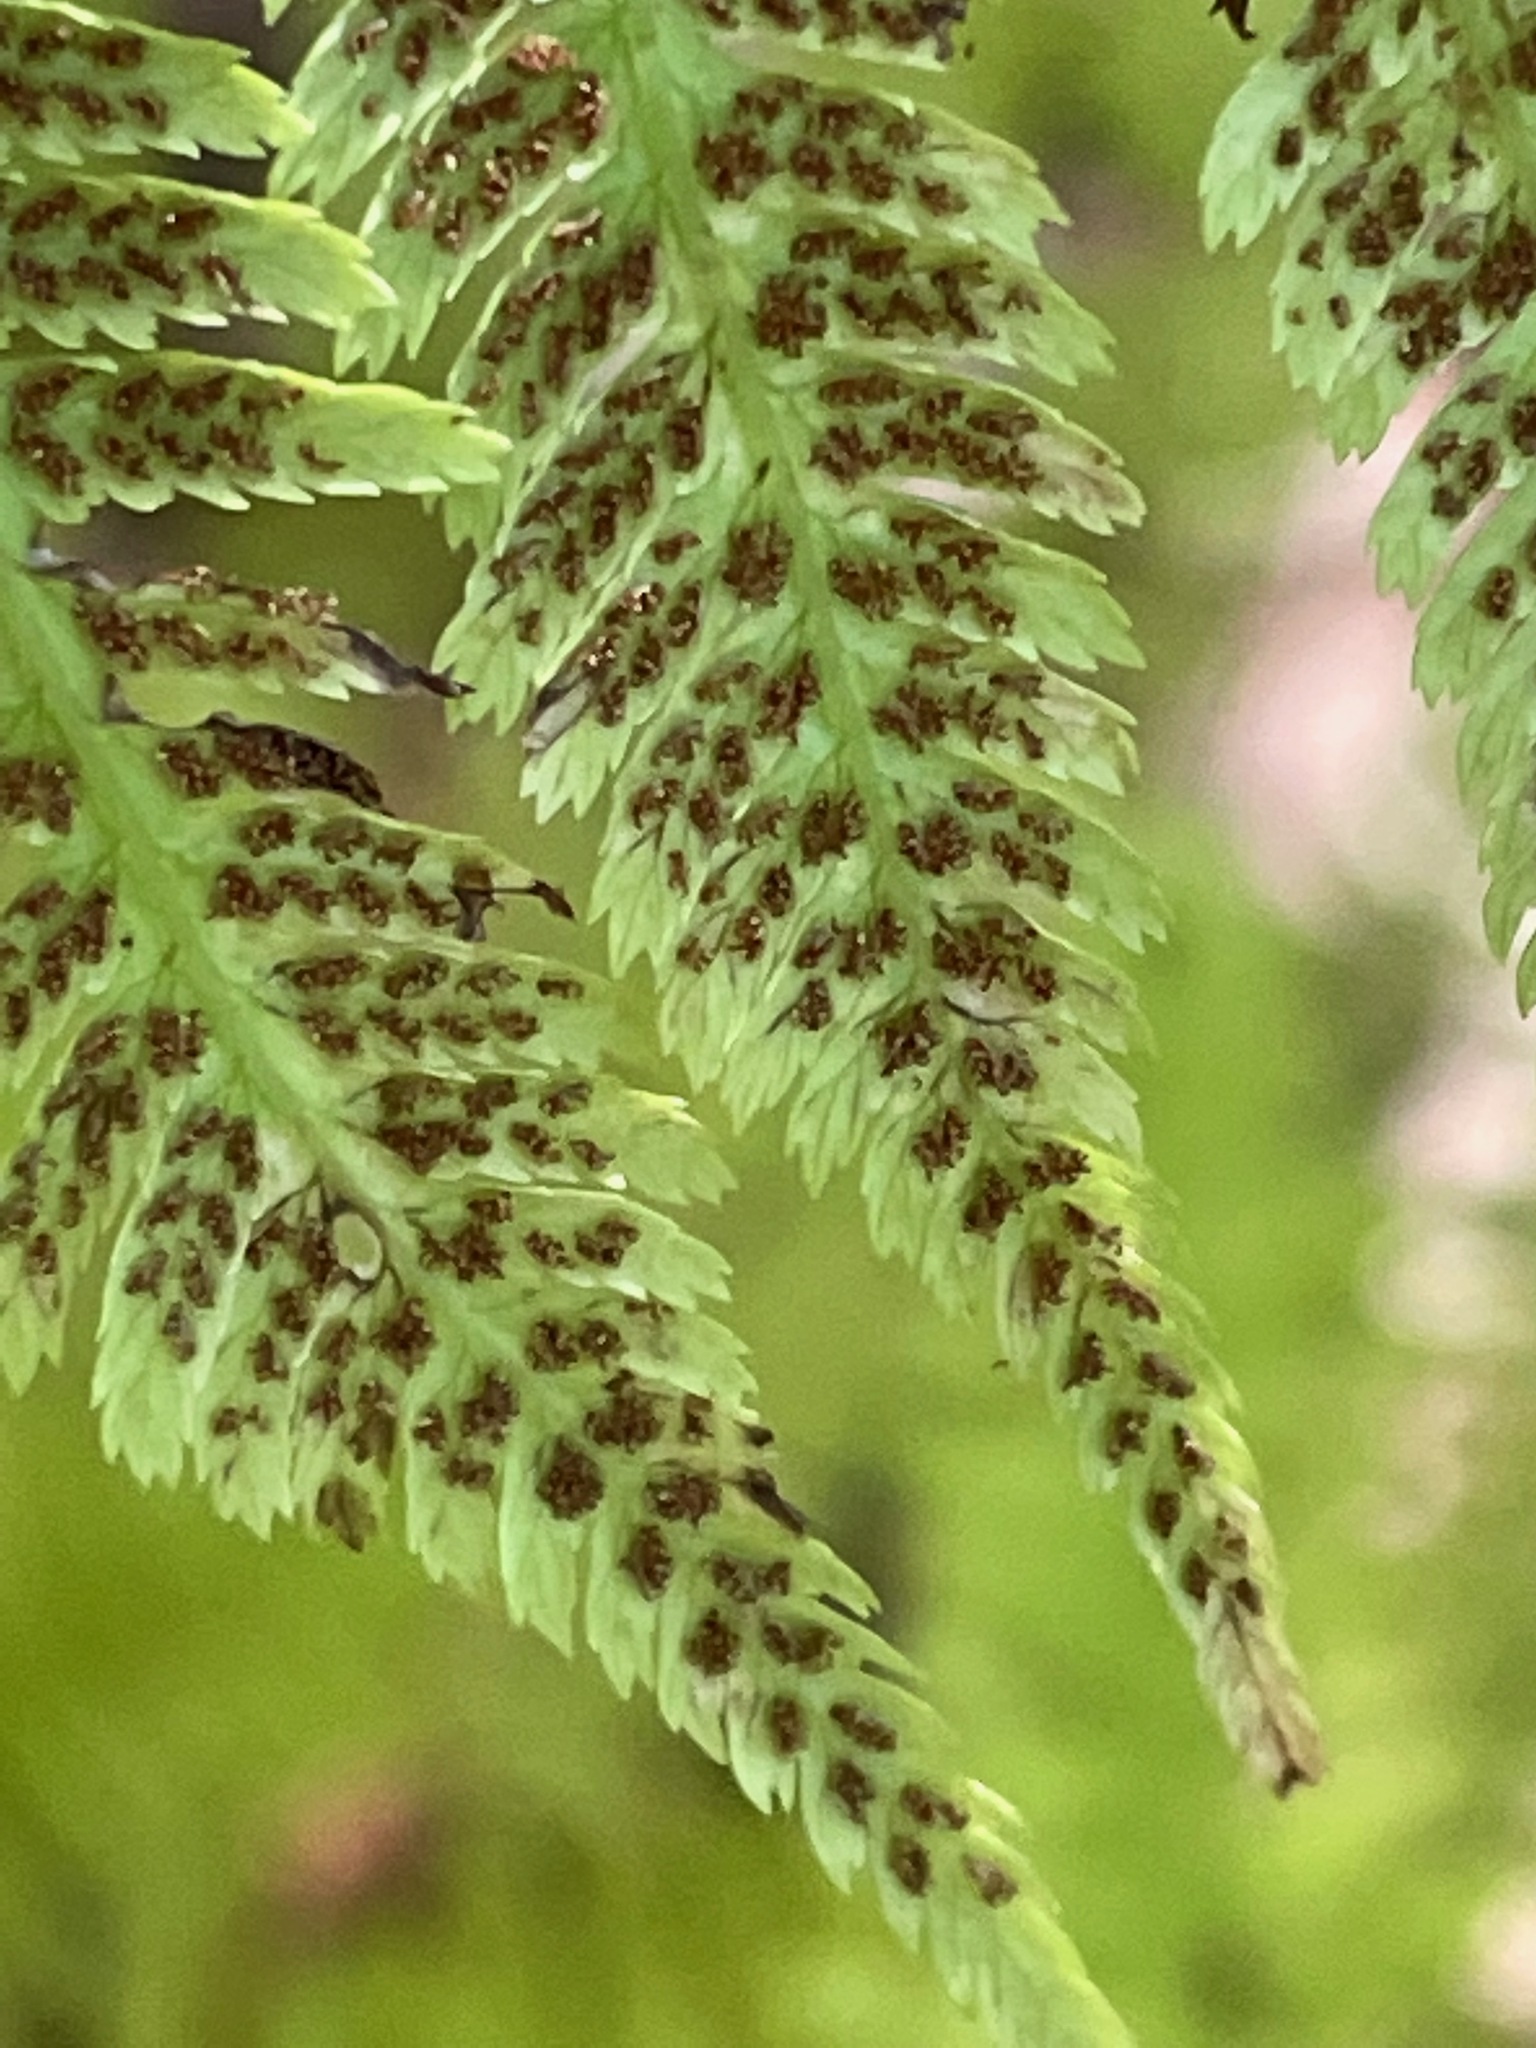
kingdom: Plantae
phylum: Tracheophyta
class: Polypodiopsida
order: Polypodiales
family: Athyriaceae
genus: Athyrium
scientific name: Athyrium angustum
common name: Northern lady fern
